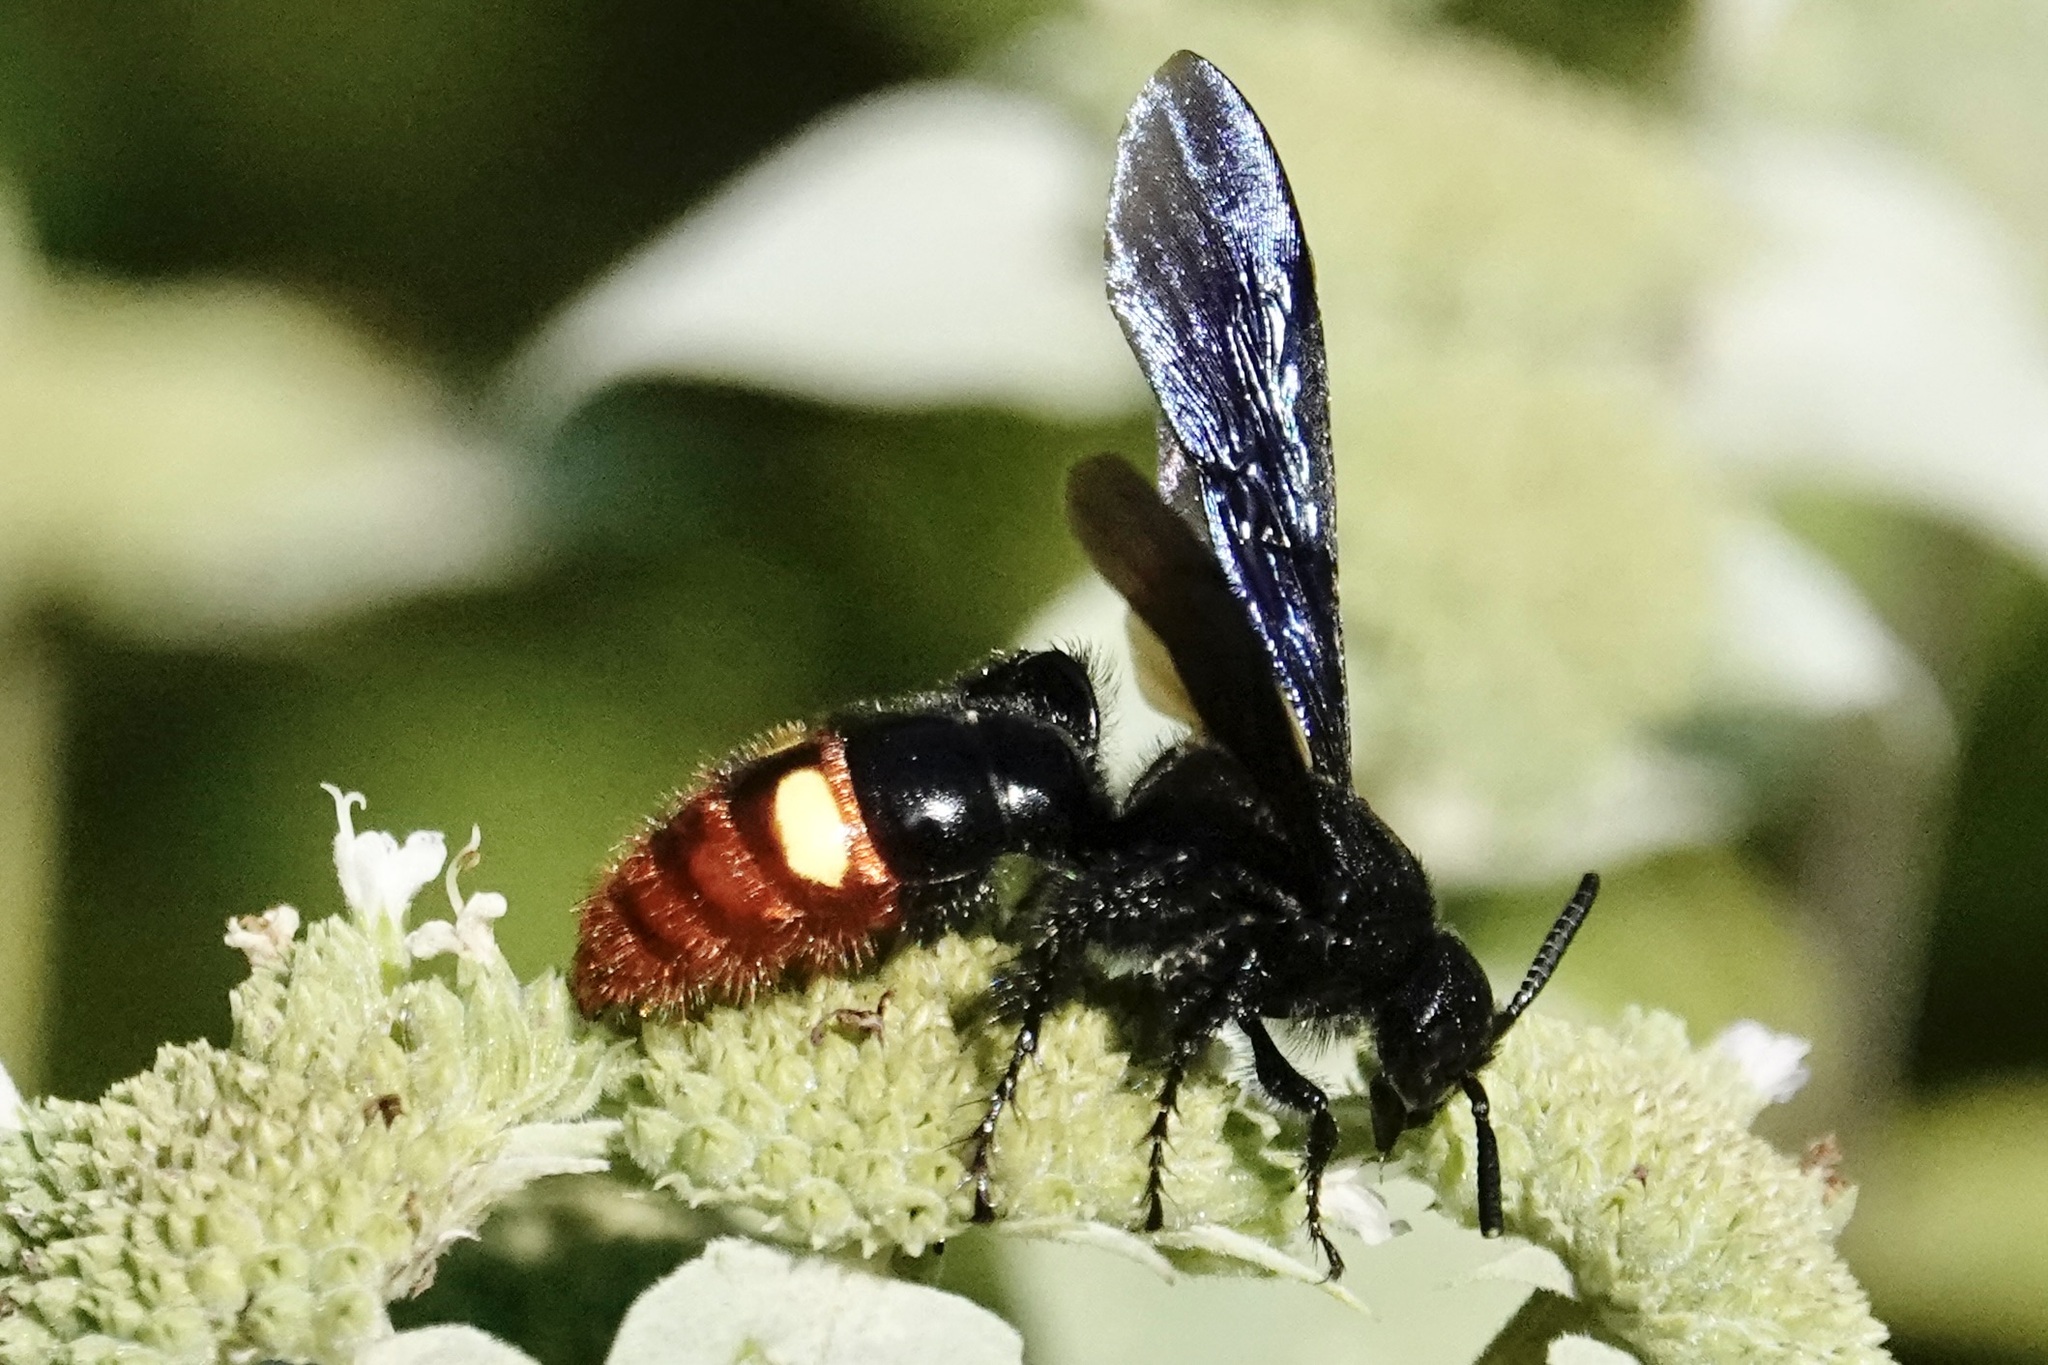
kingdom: Animalia
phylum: Arthropoda
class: Insecta
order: Hymenoptera
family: Scoliidae
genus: Scolia
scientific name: Scolia dubia
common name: Blue-winged scoliid wasp
